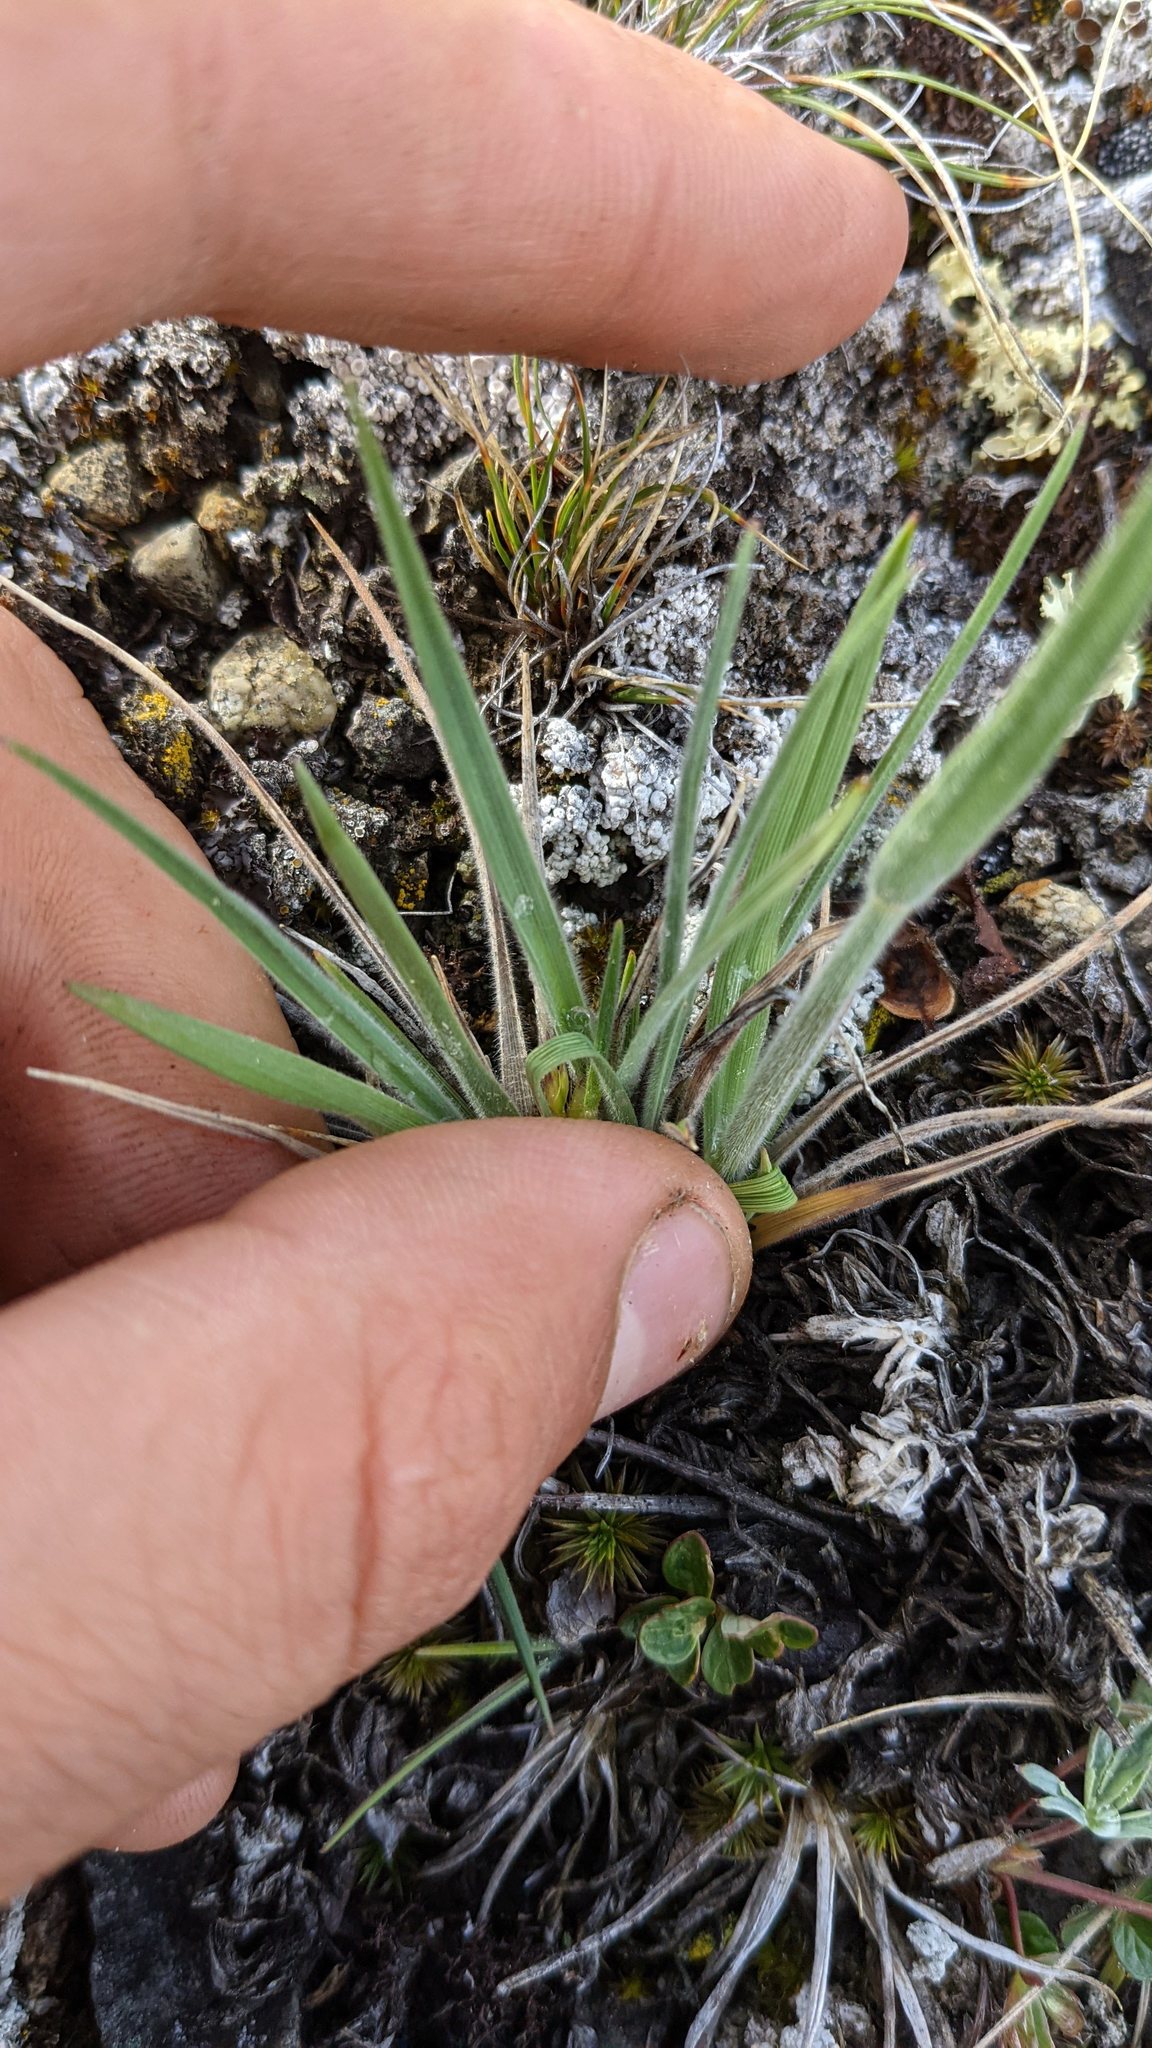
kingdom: Plantae
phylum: Tracheophyta
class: Liliopsida
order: Poales
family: Poaceae
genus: Koeleria
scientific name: Koeleria spicata
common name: Mountain trisetum
